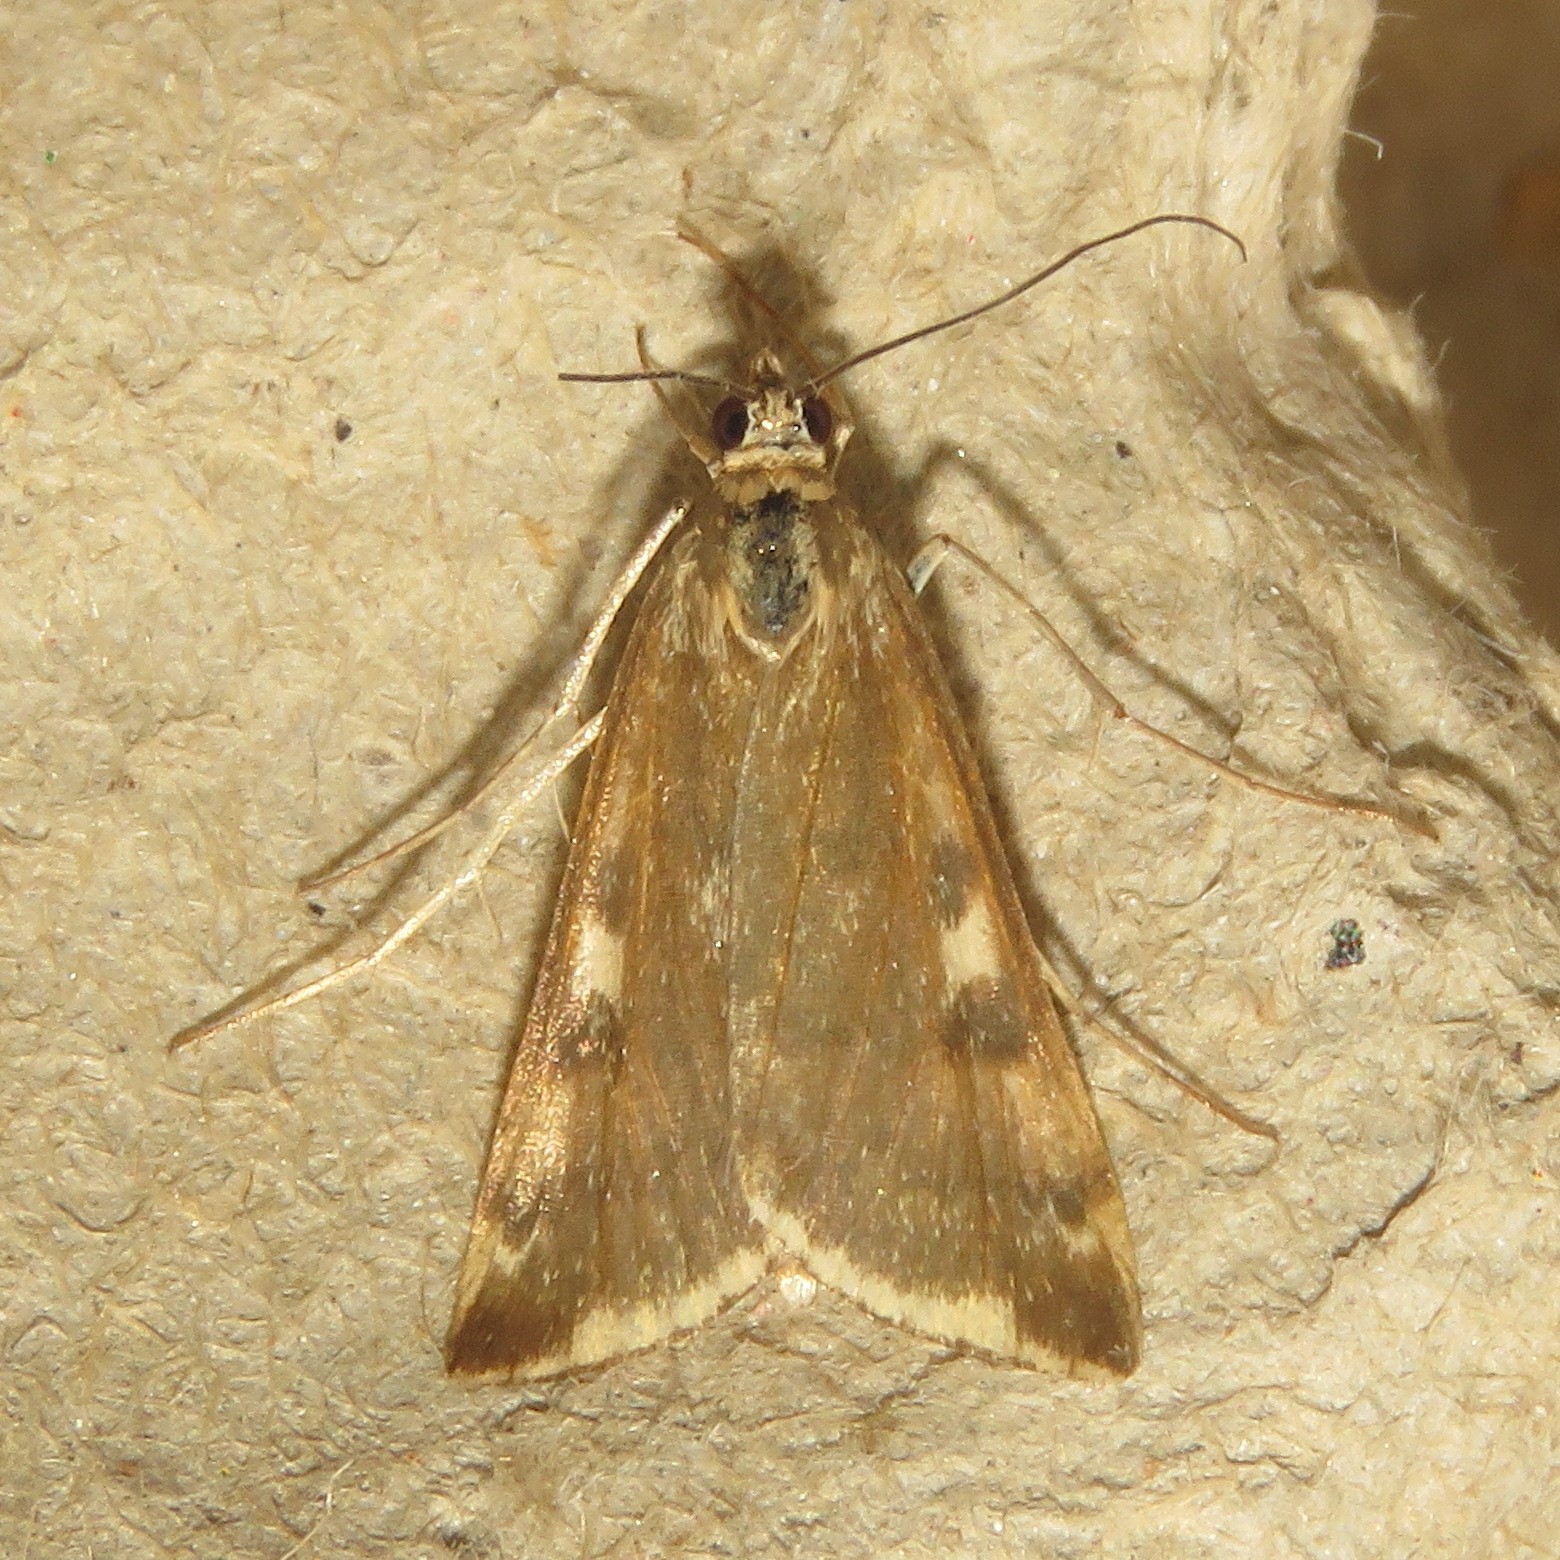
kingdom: Animalia
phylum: Arthropoda
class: Insecta
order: Lepidoptera
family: Crambidae
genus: Loxostege
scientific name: Loxostege
